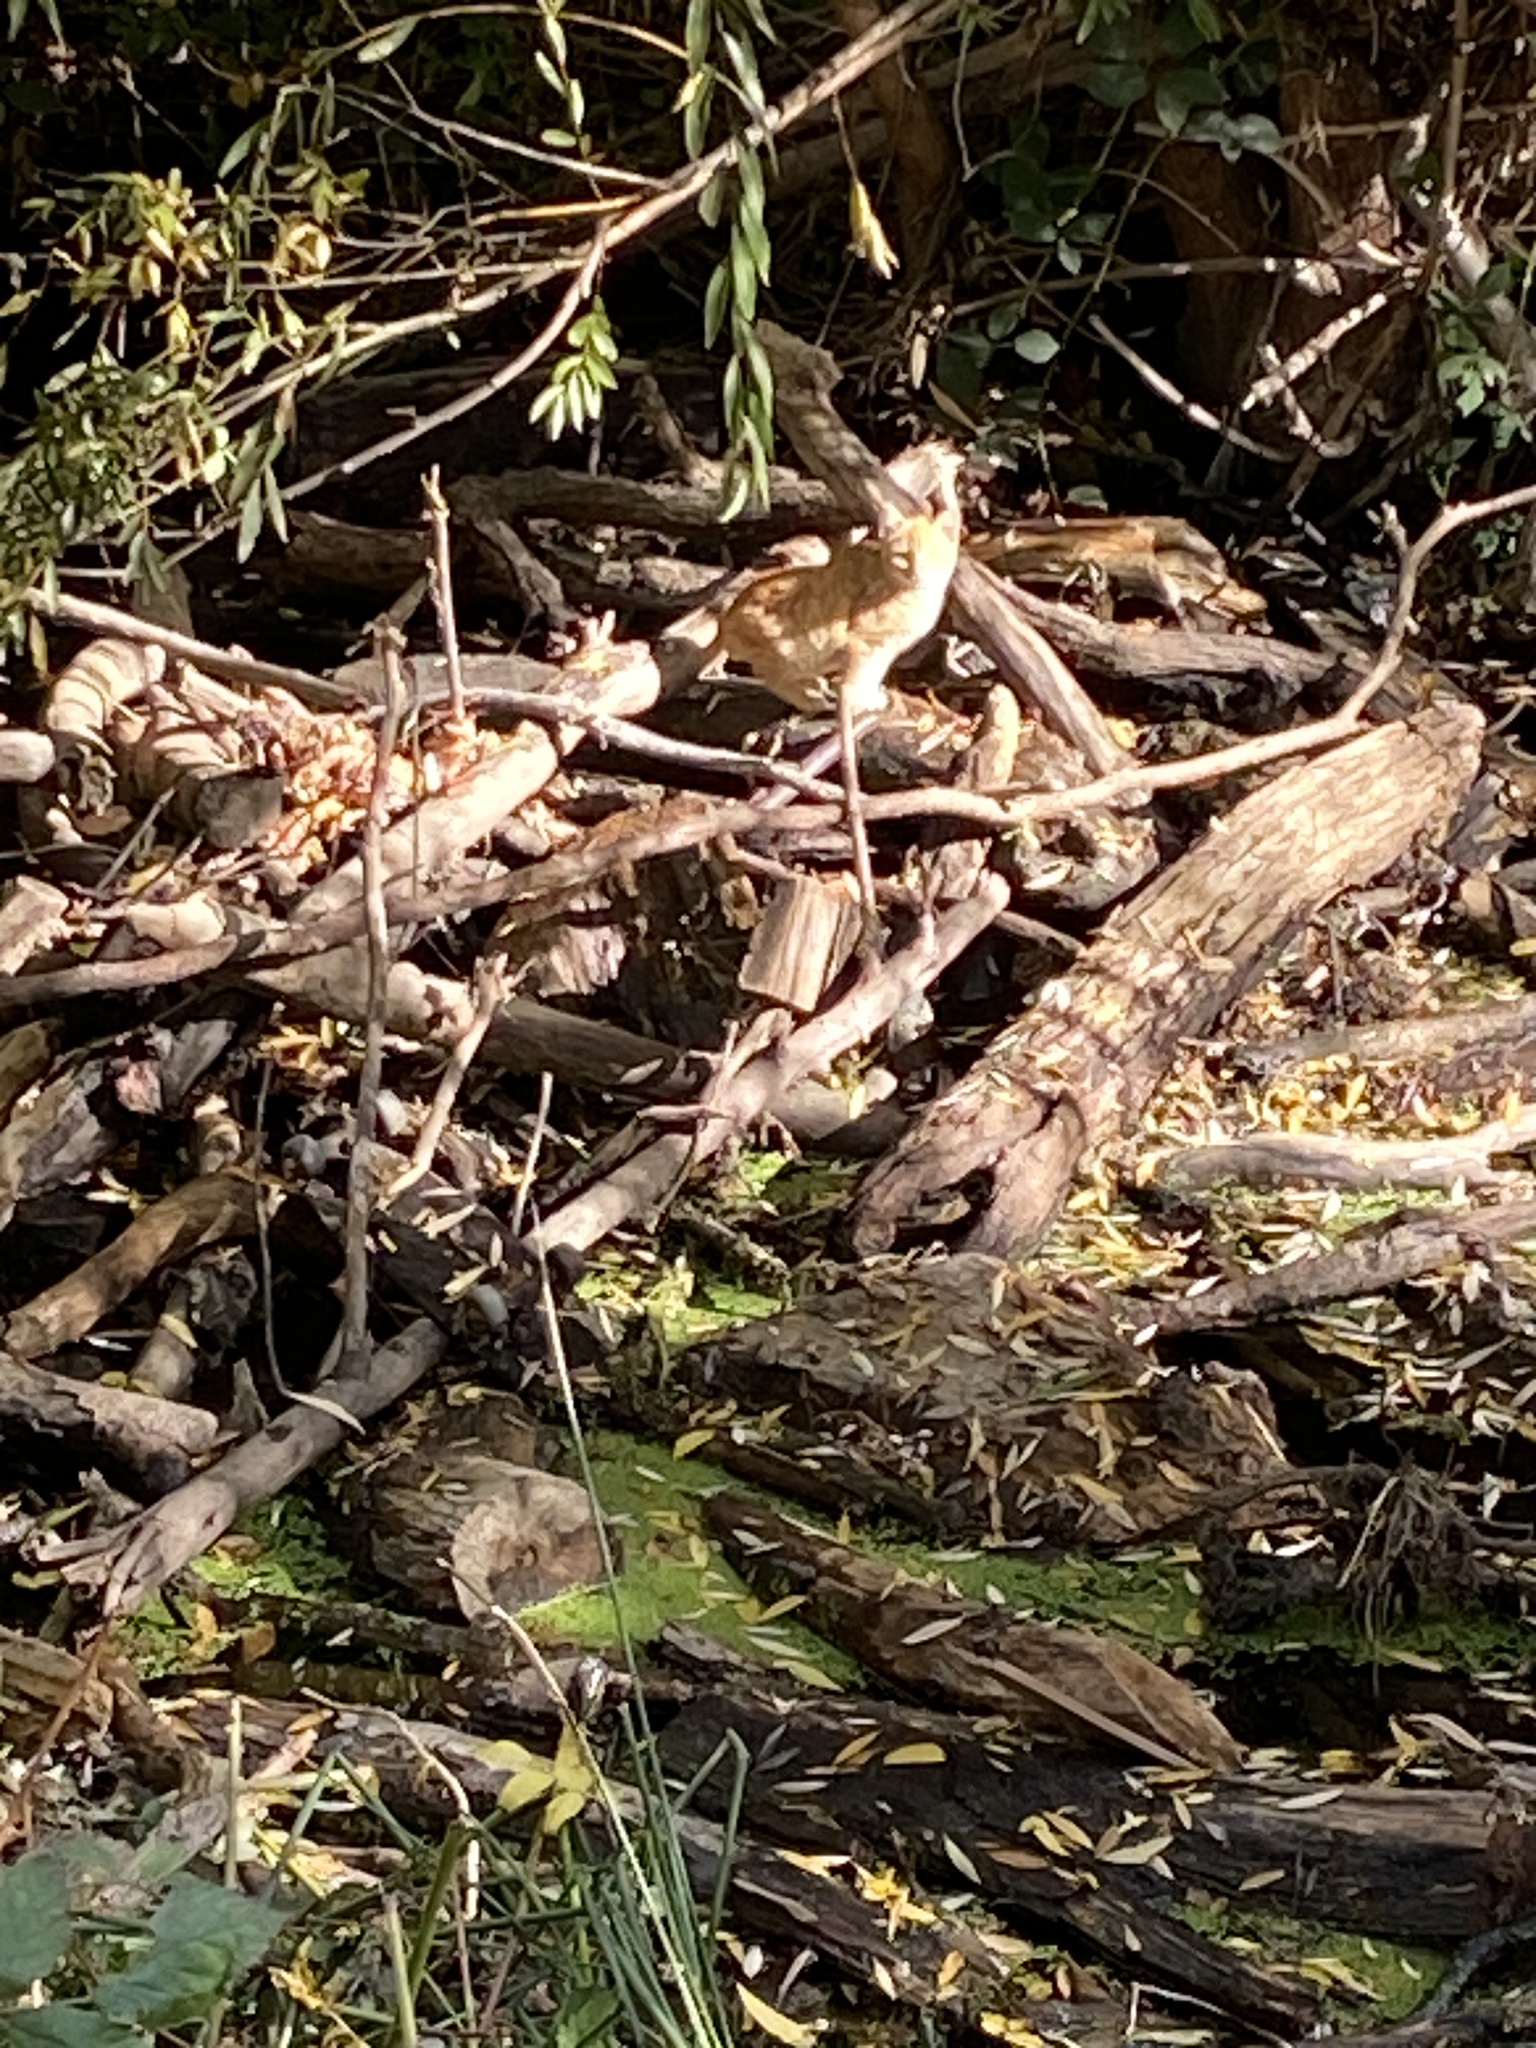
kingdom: Animalia
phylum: Chordata
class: Mammalia
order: Carnivora
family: Felidae
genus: Felis
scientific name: Felis catus
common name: Domestic cat
